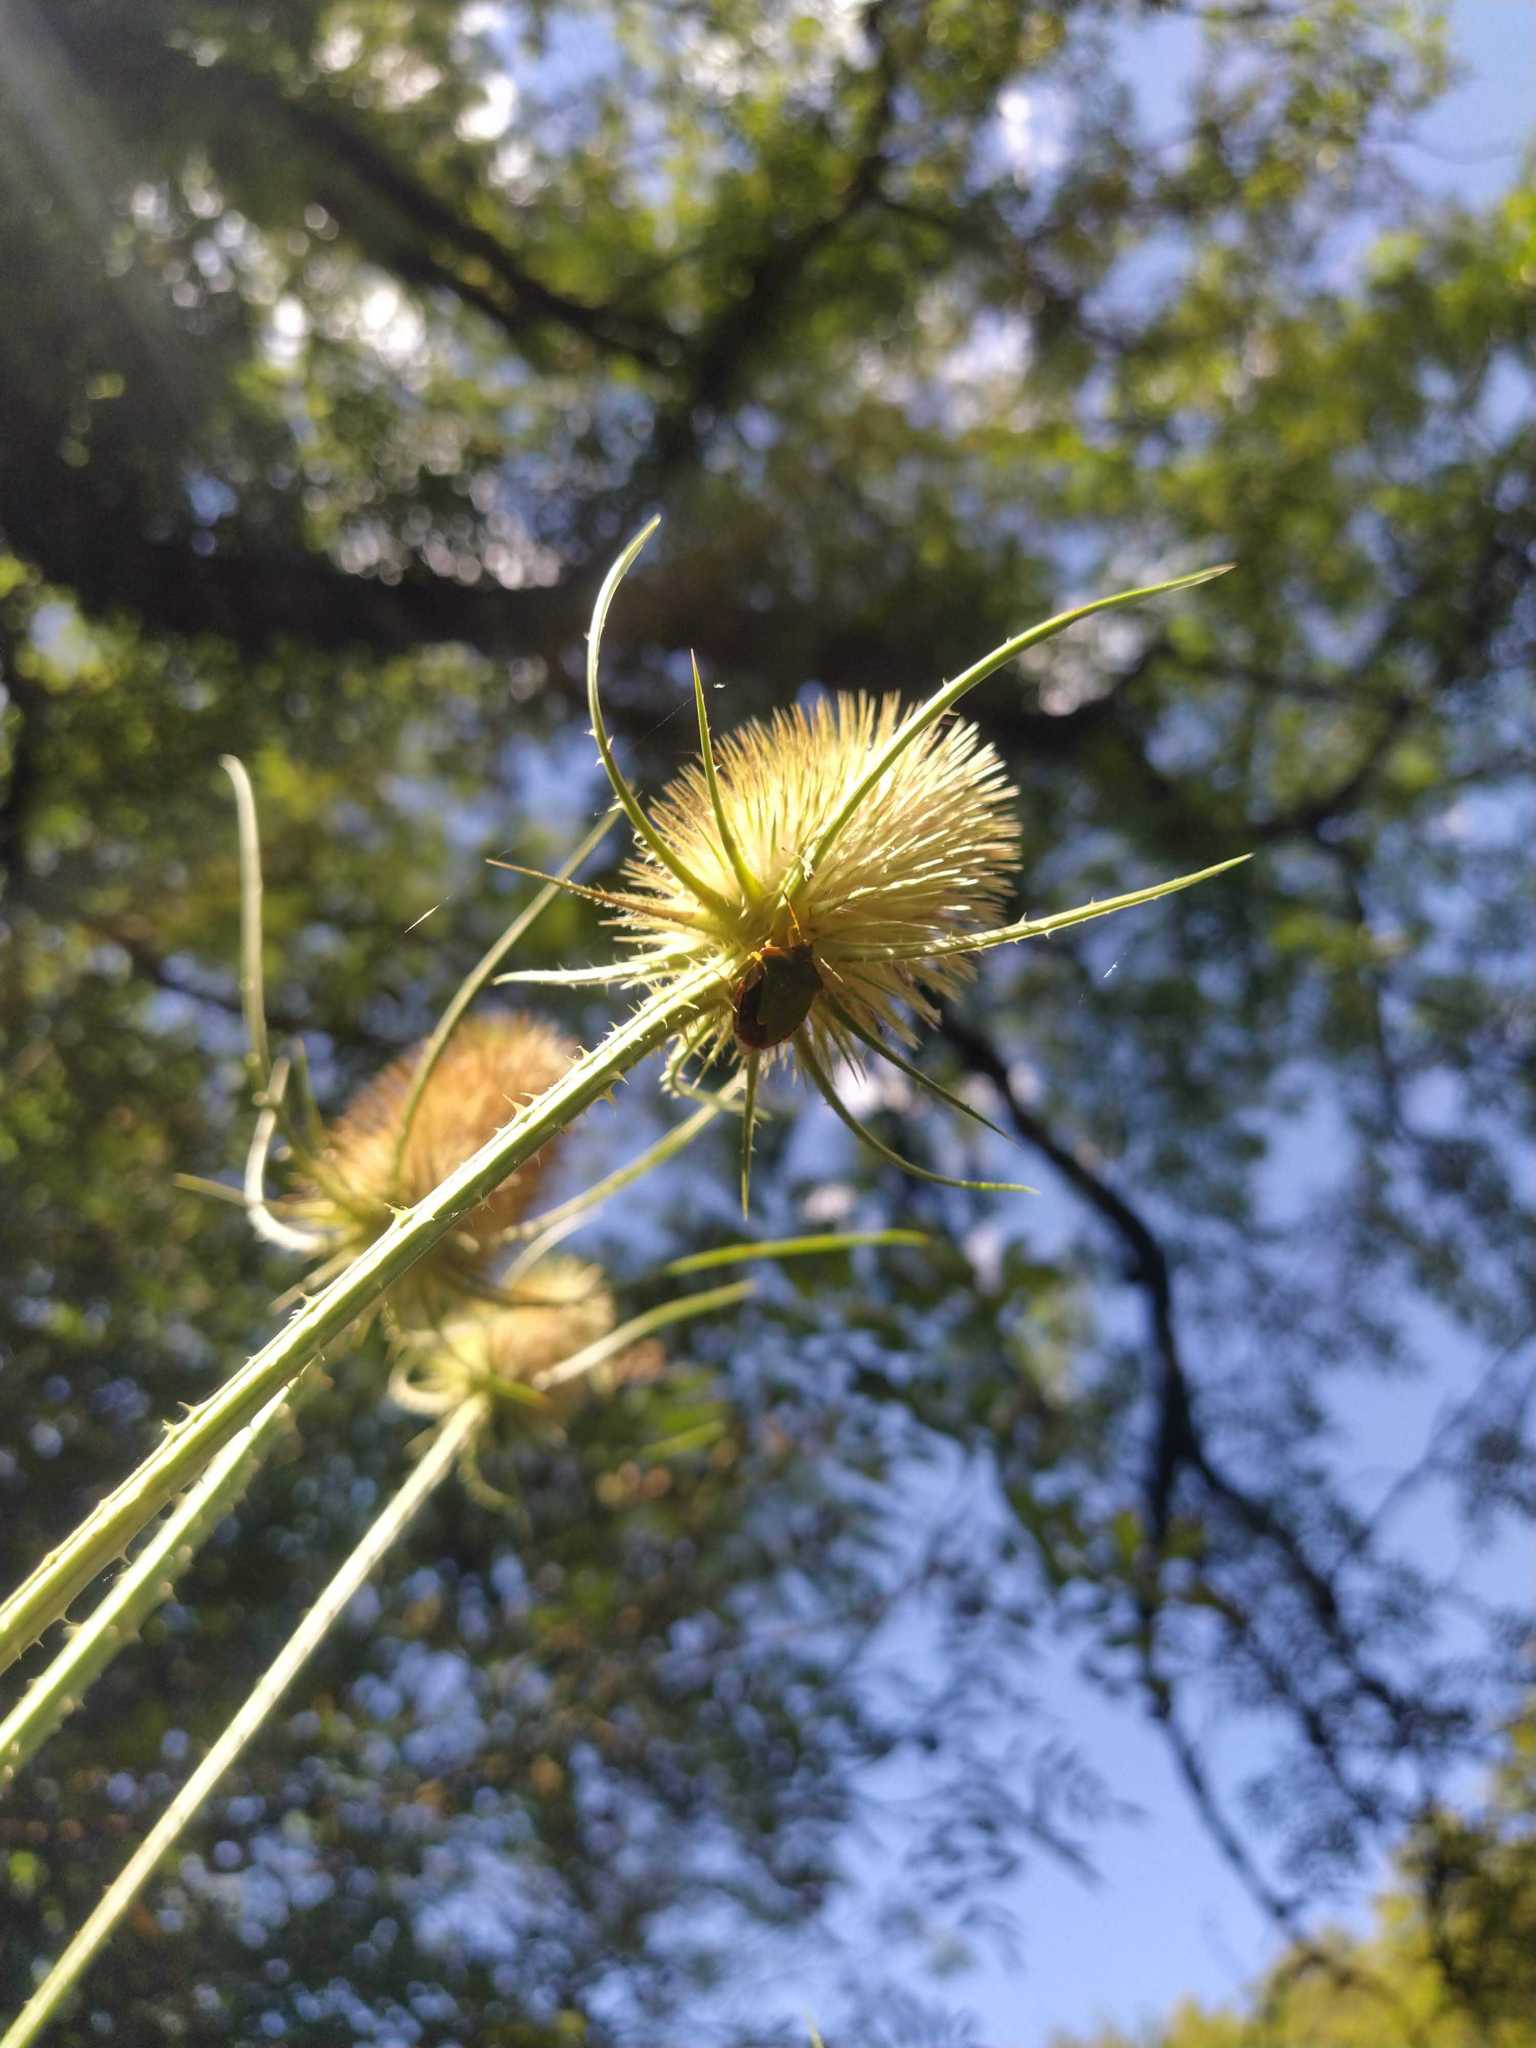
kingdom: Animalia
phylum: Arthropoda
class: Insecta
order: Hemiptera
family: Pentatomidae
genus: Palomena
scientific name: Palomena prasina
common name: Green shieldbug
